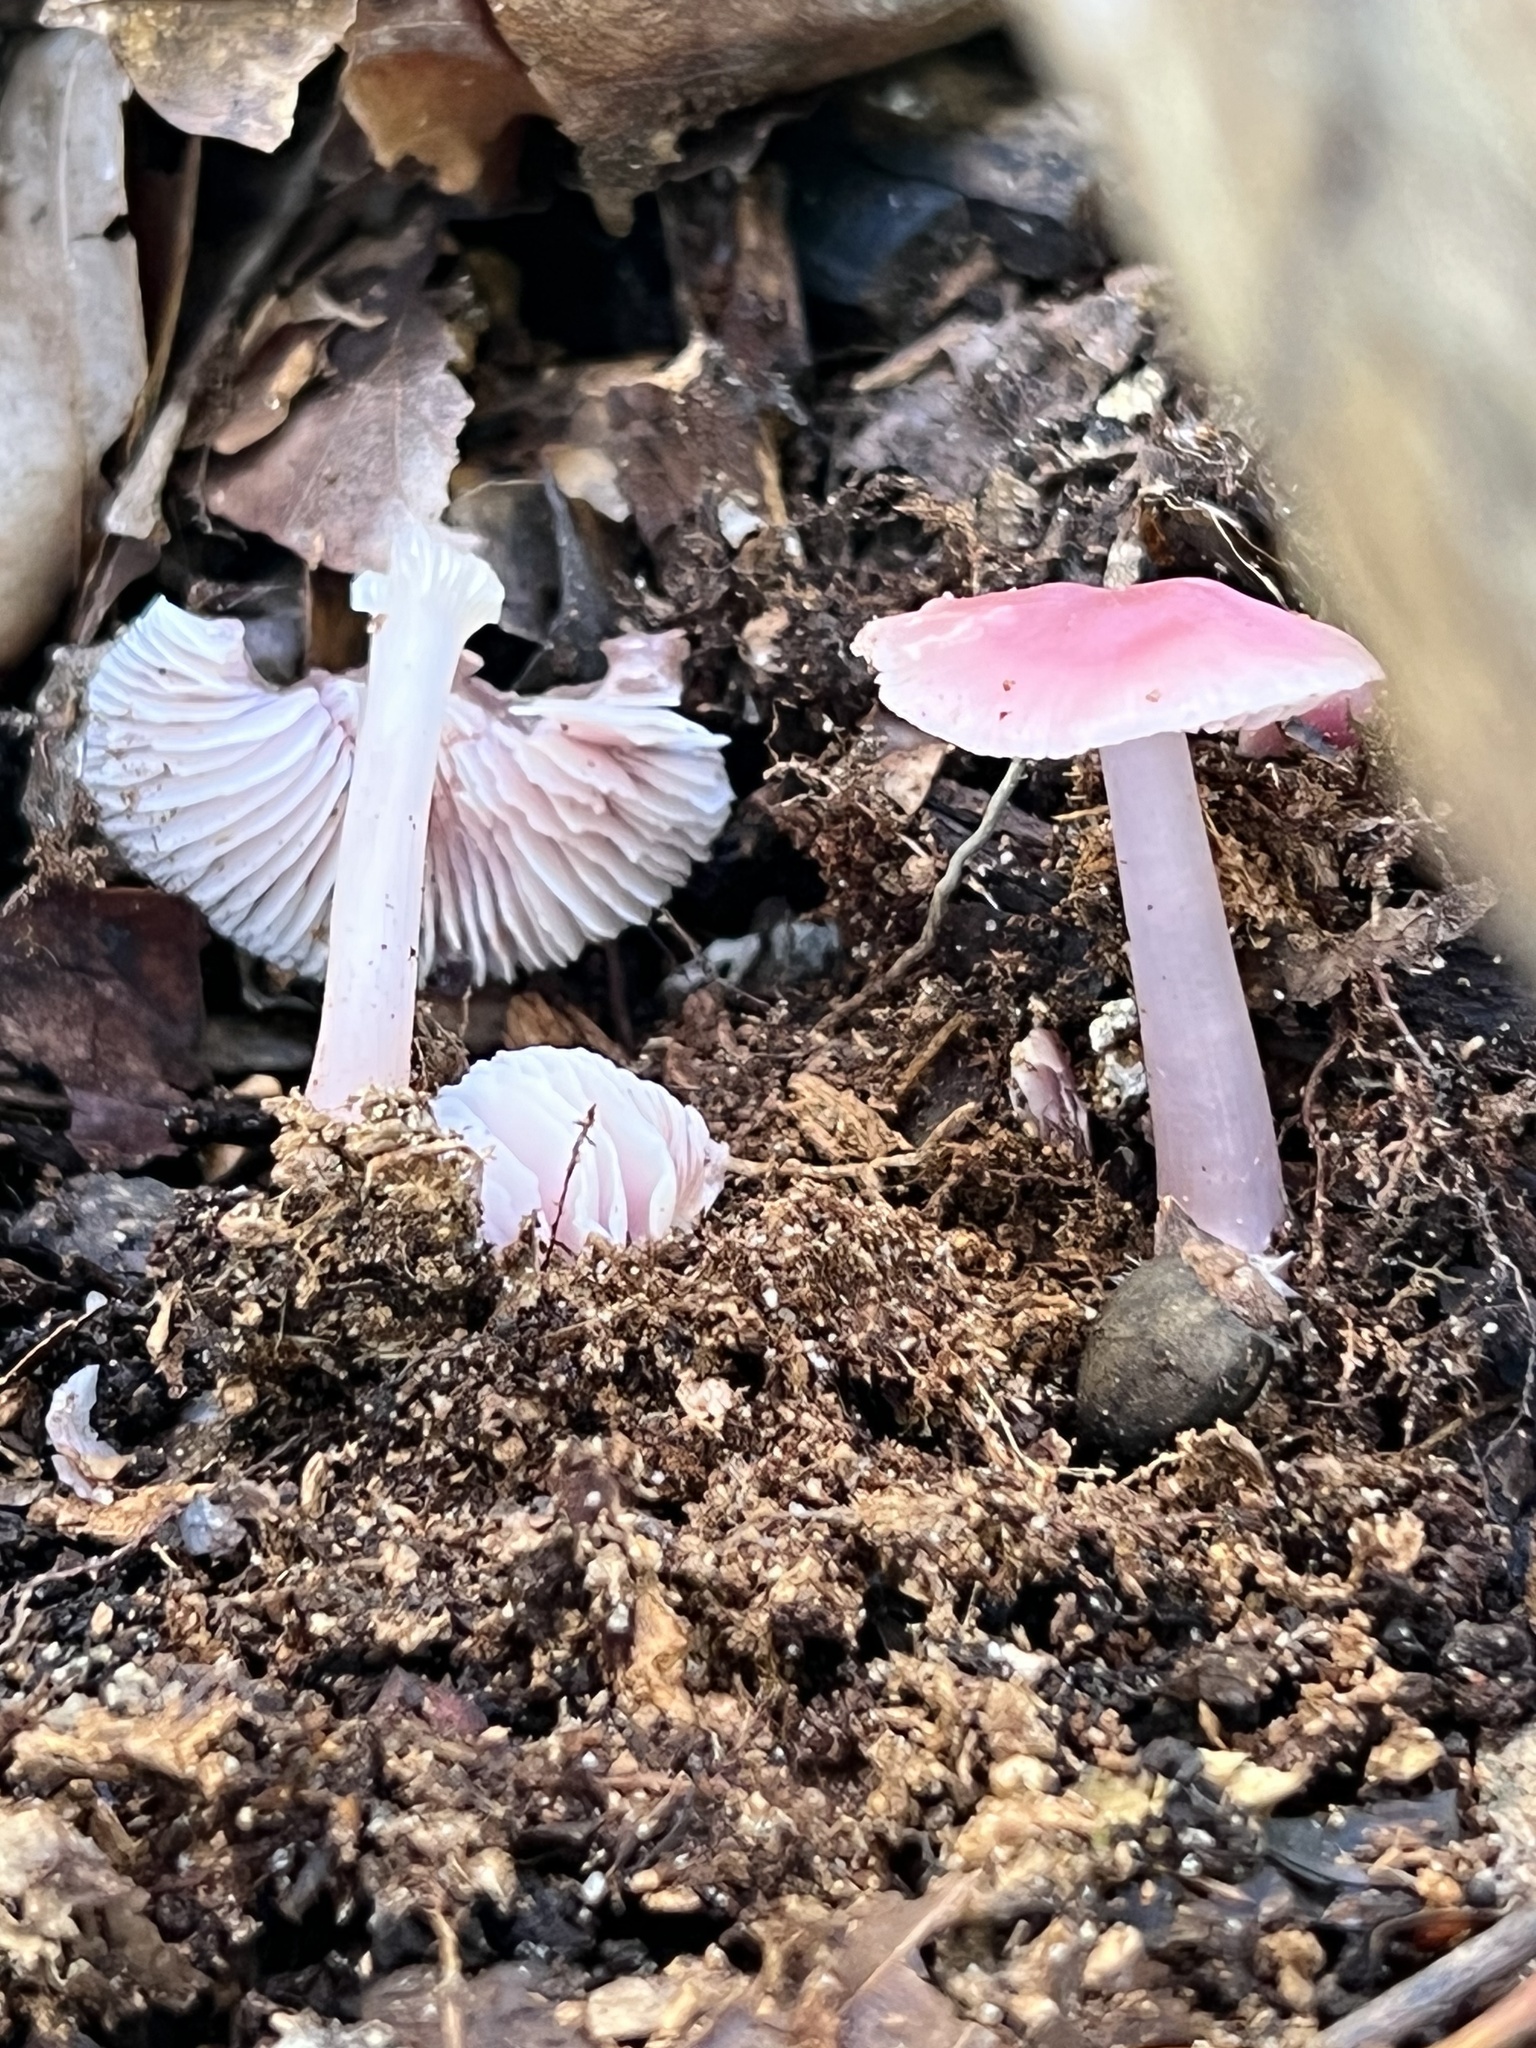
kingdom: Fungi
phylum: Basidiomycota
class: Agaricomycetes
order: Agaricales
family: Mycenaceae
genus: Mycena
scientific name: Mycena pura
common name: Lilac bonnet
